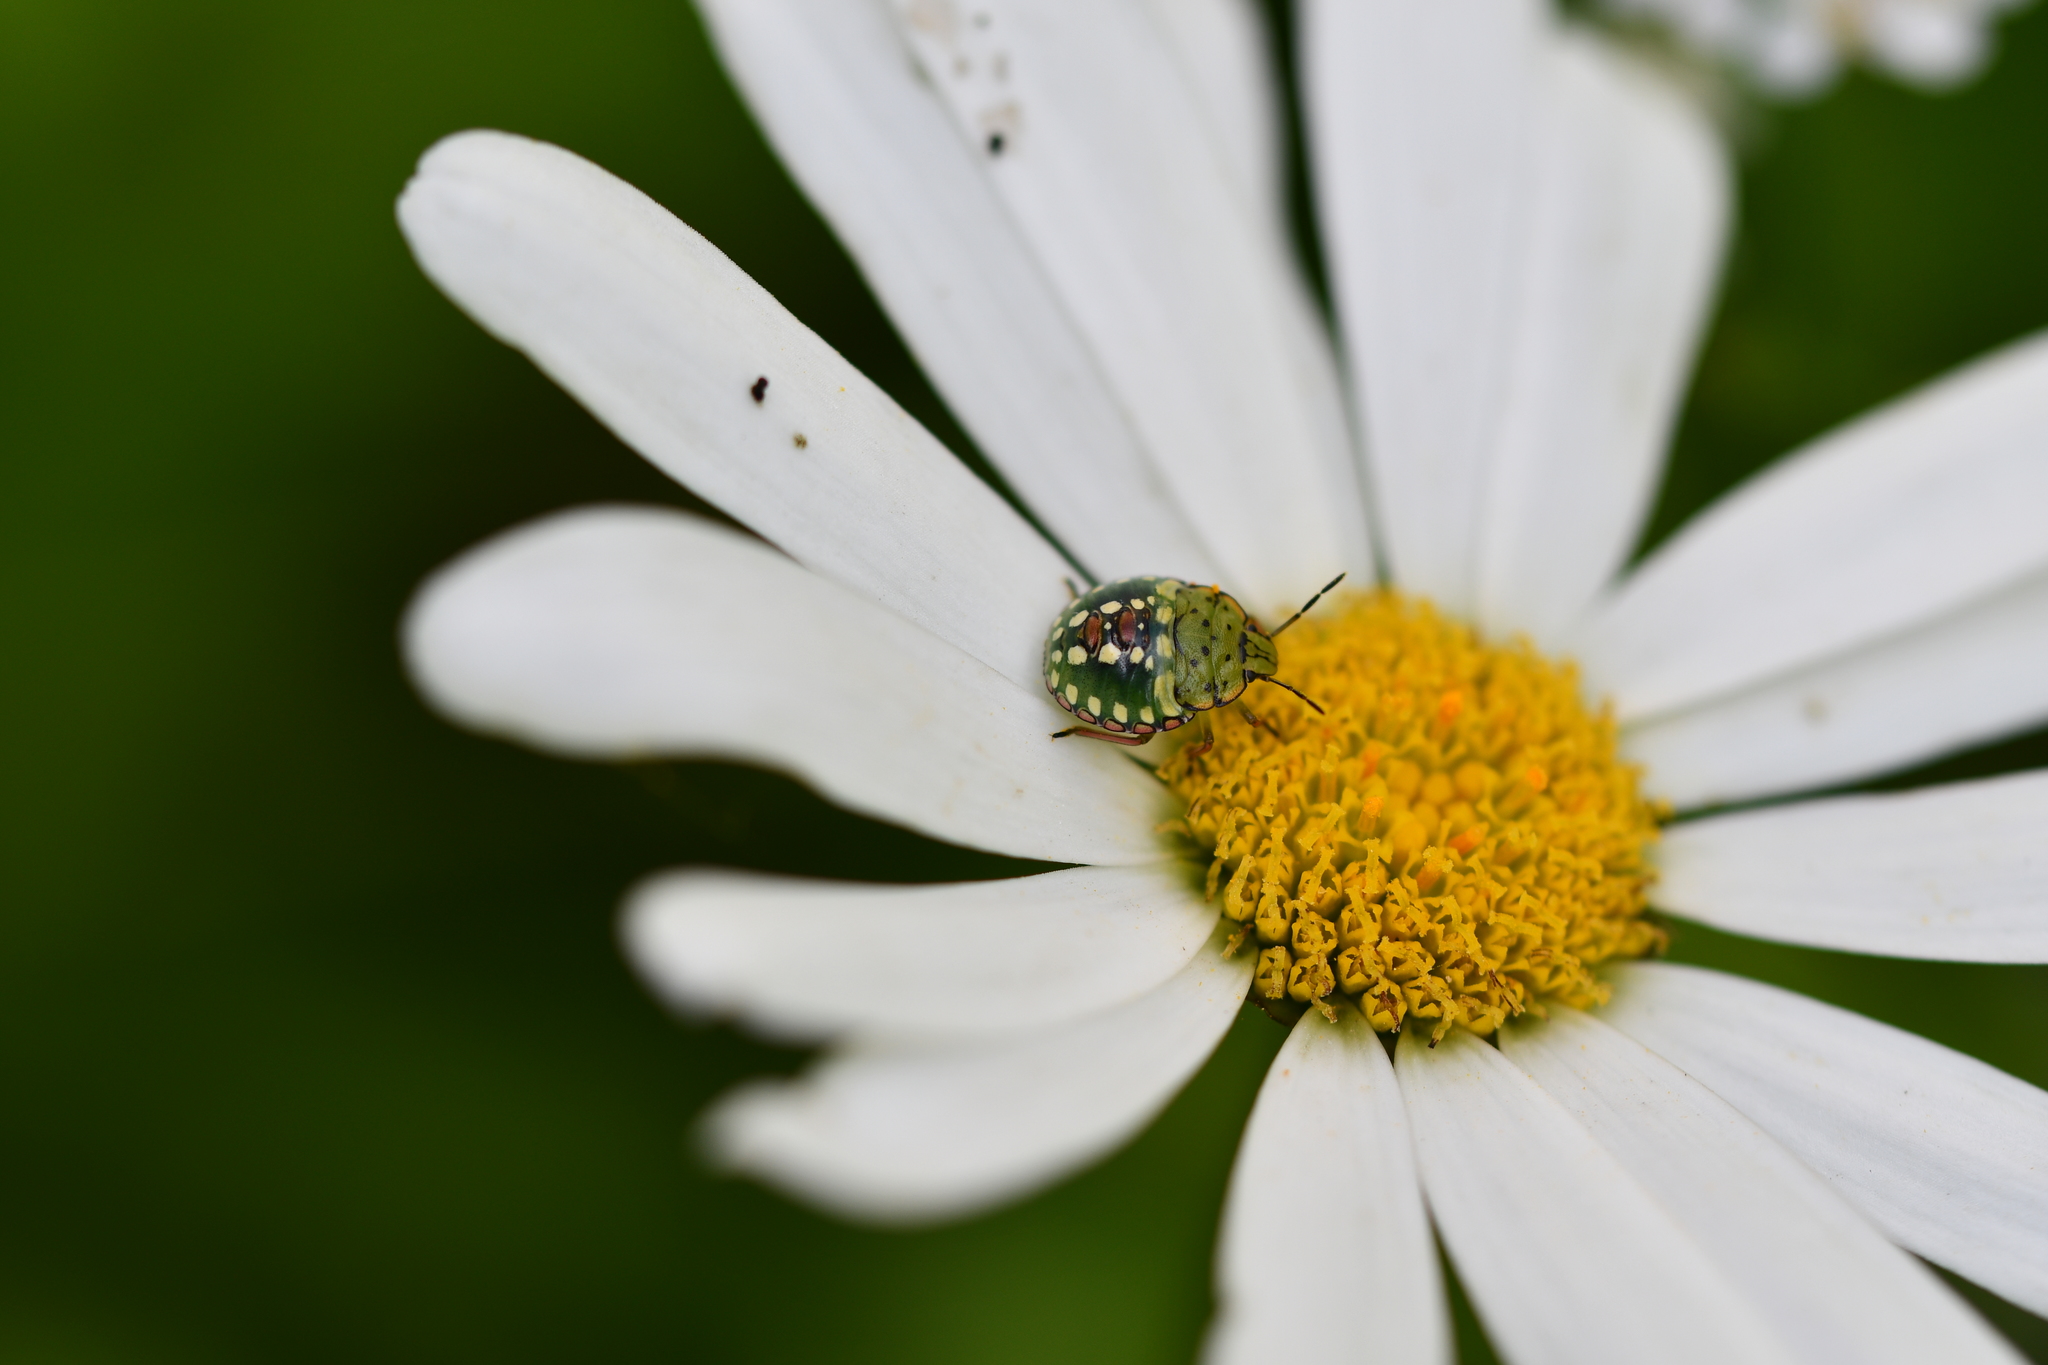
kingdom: Animalia
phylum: Arthropoda
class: Insecta
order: Hemiptera
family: Pentatomidae
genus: Nezara
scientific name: Nezara viridula
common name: Southern green stink bug
